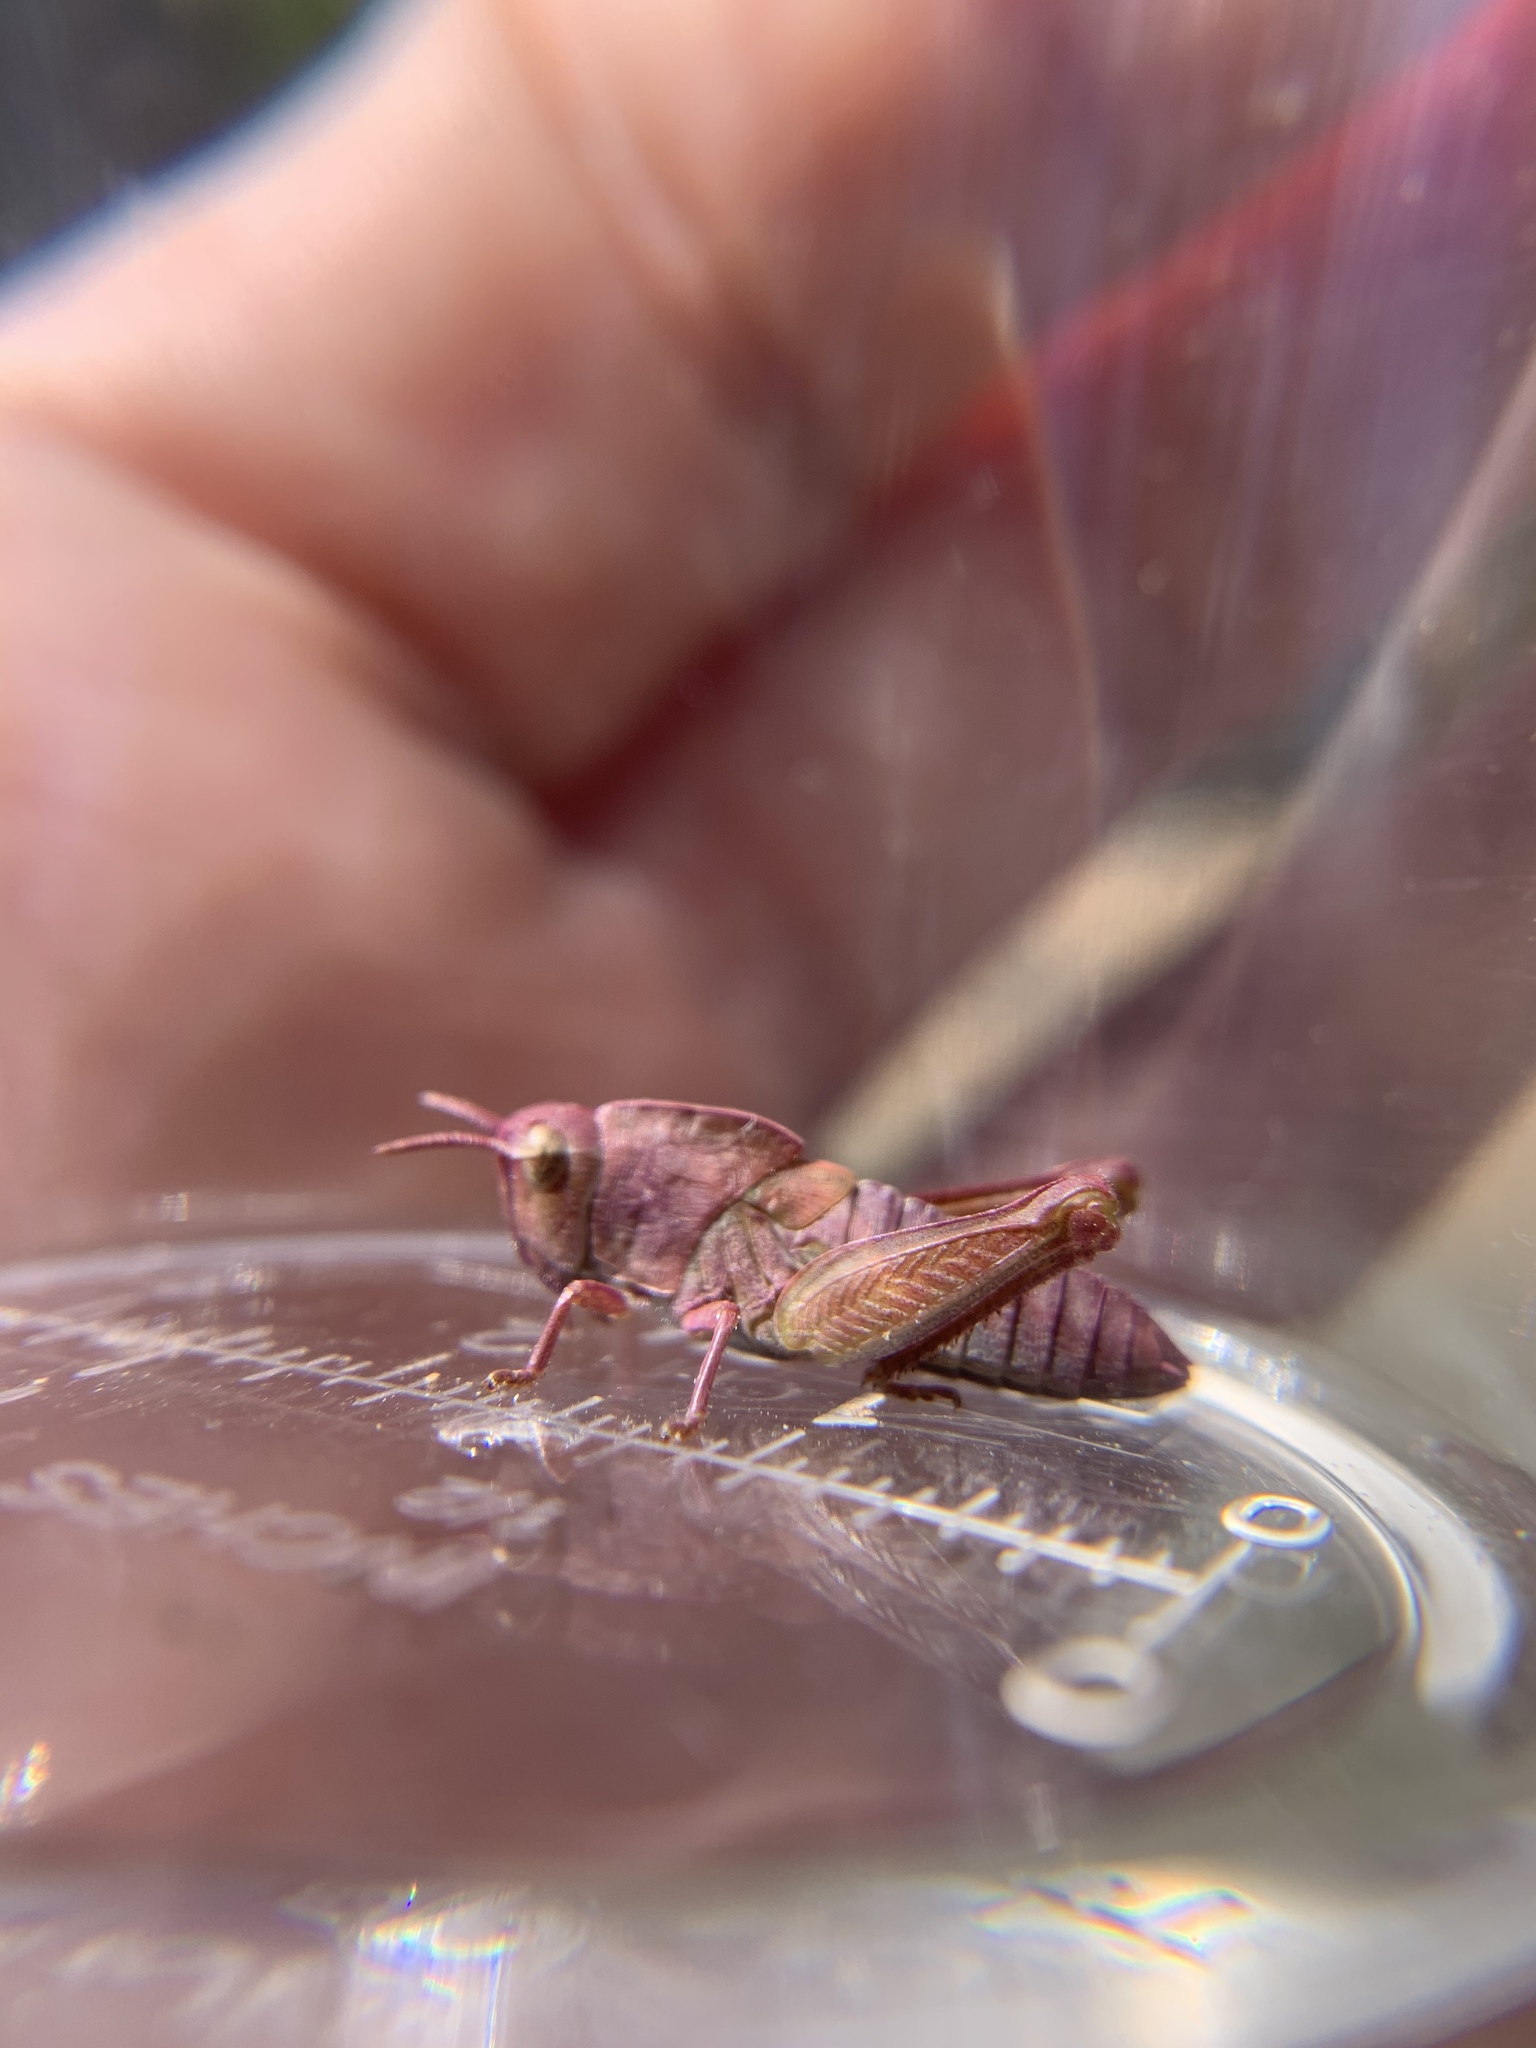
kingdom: Animalia
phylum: Arthropoda
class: Insecta
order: Orthoptera
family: Acrididae
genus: Chortophaga
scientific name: Chortophaga viridifasciata
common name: Green-striped grasshopper
